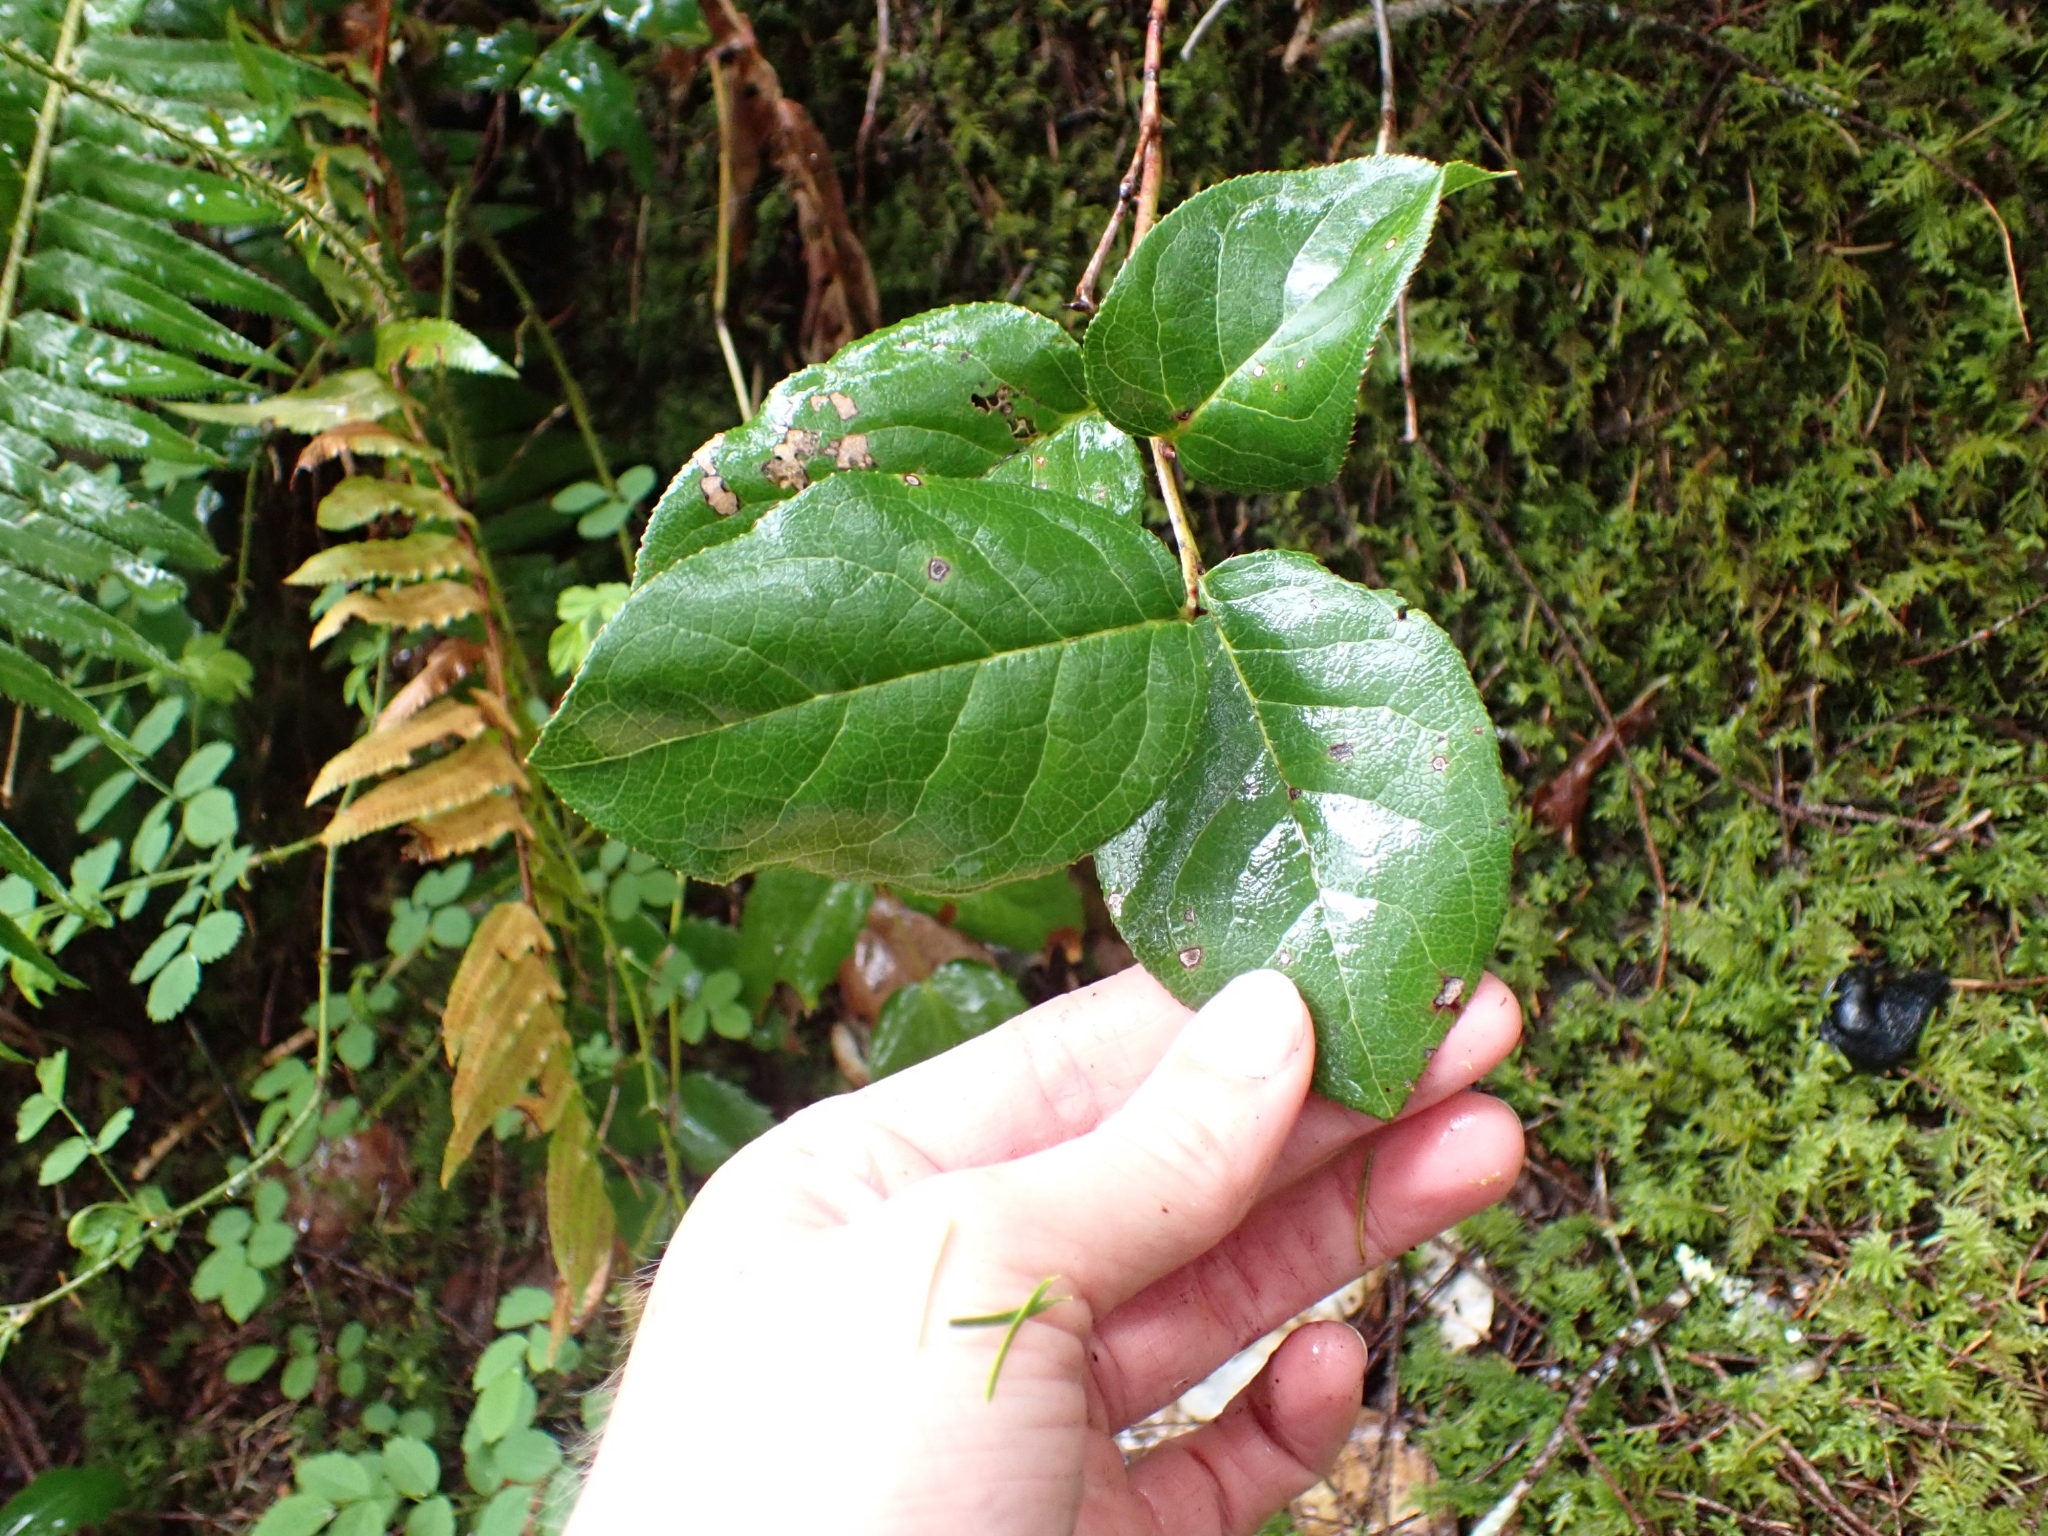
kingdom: Plantae
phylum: Tracheophyta
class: Magnoliopsida
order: Ericales
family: Ericaceae
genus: Gaultheria
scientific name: Gaultheria shallon
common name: Shallon
